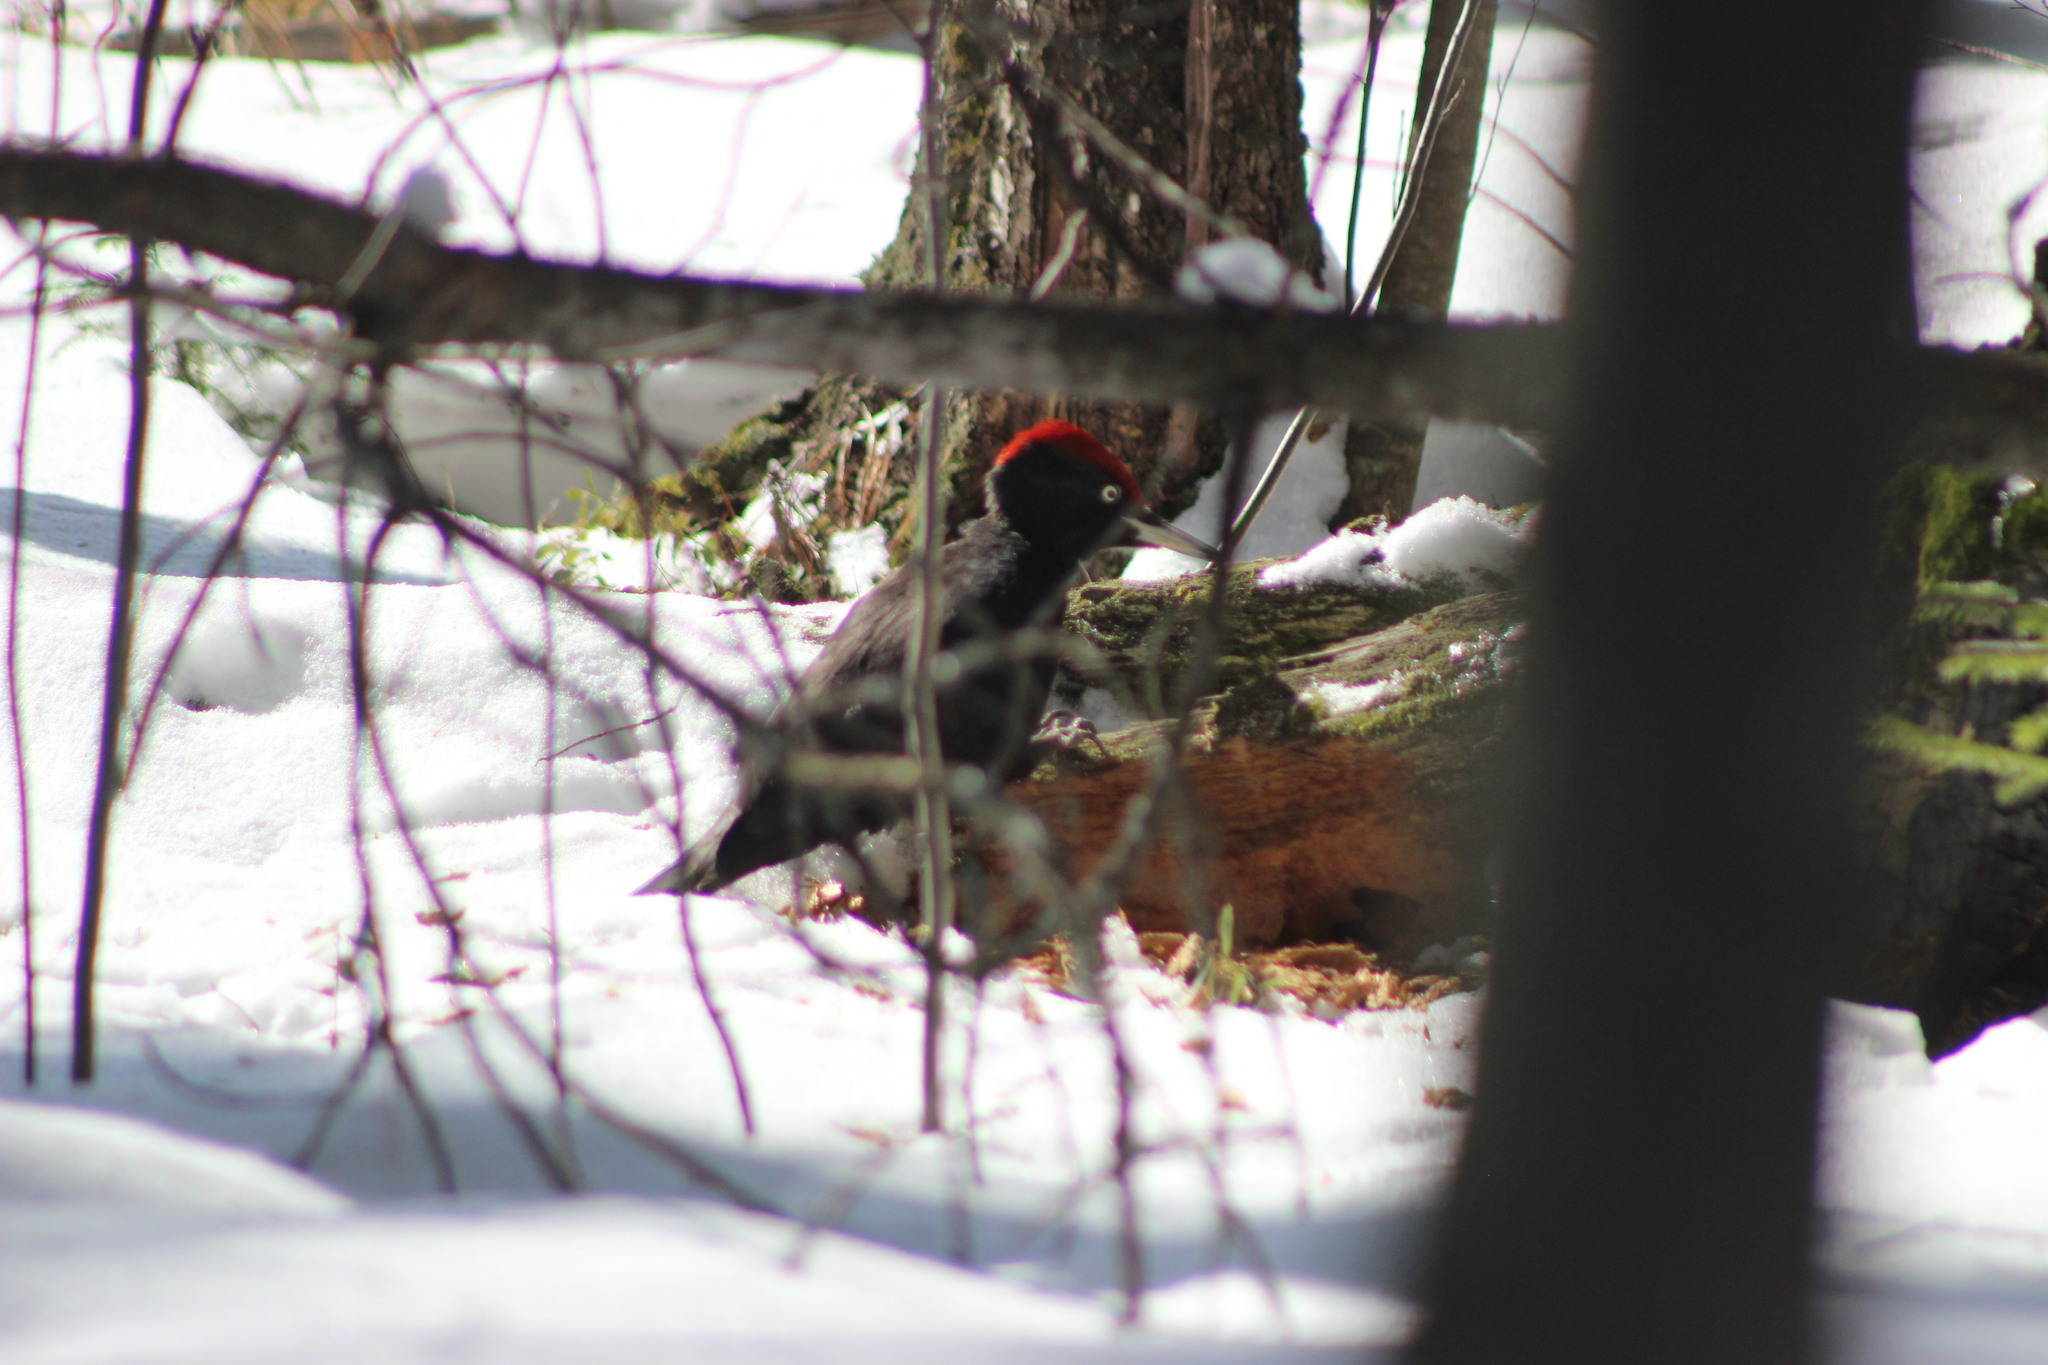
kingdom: Animalia
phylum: Chordata
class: Aves
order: Piciformes
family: Picidae
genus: Dryocopus
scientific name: Dryocopus martius
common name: Black woodpecker
